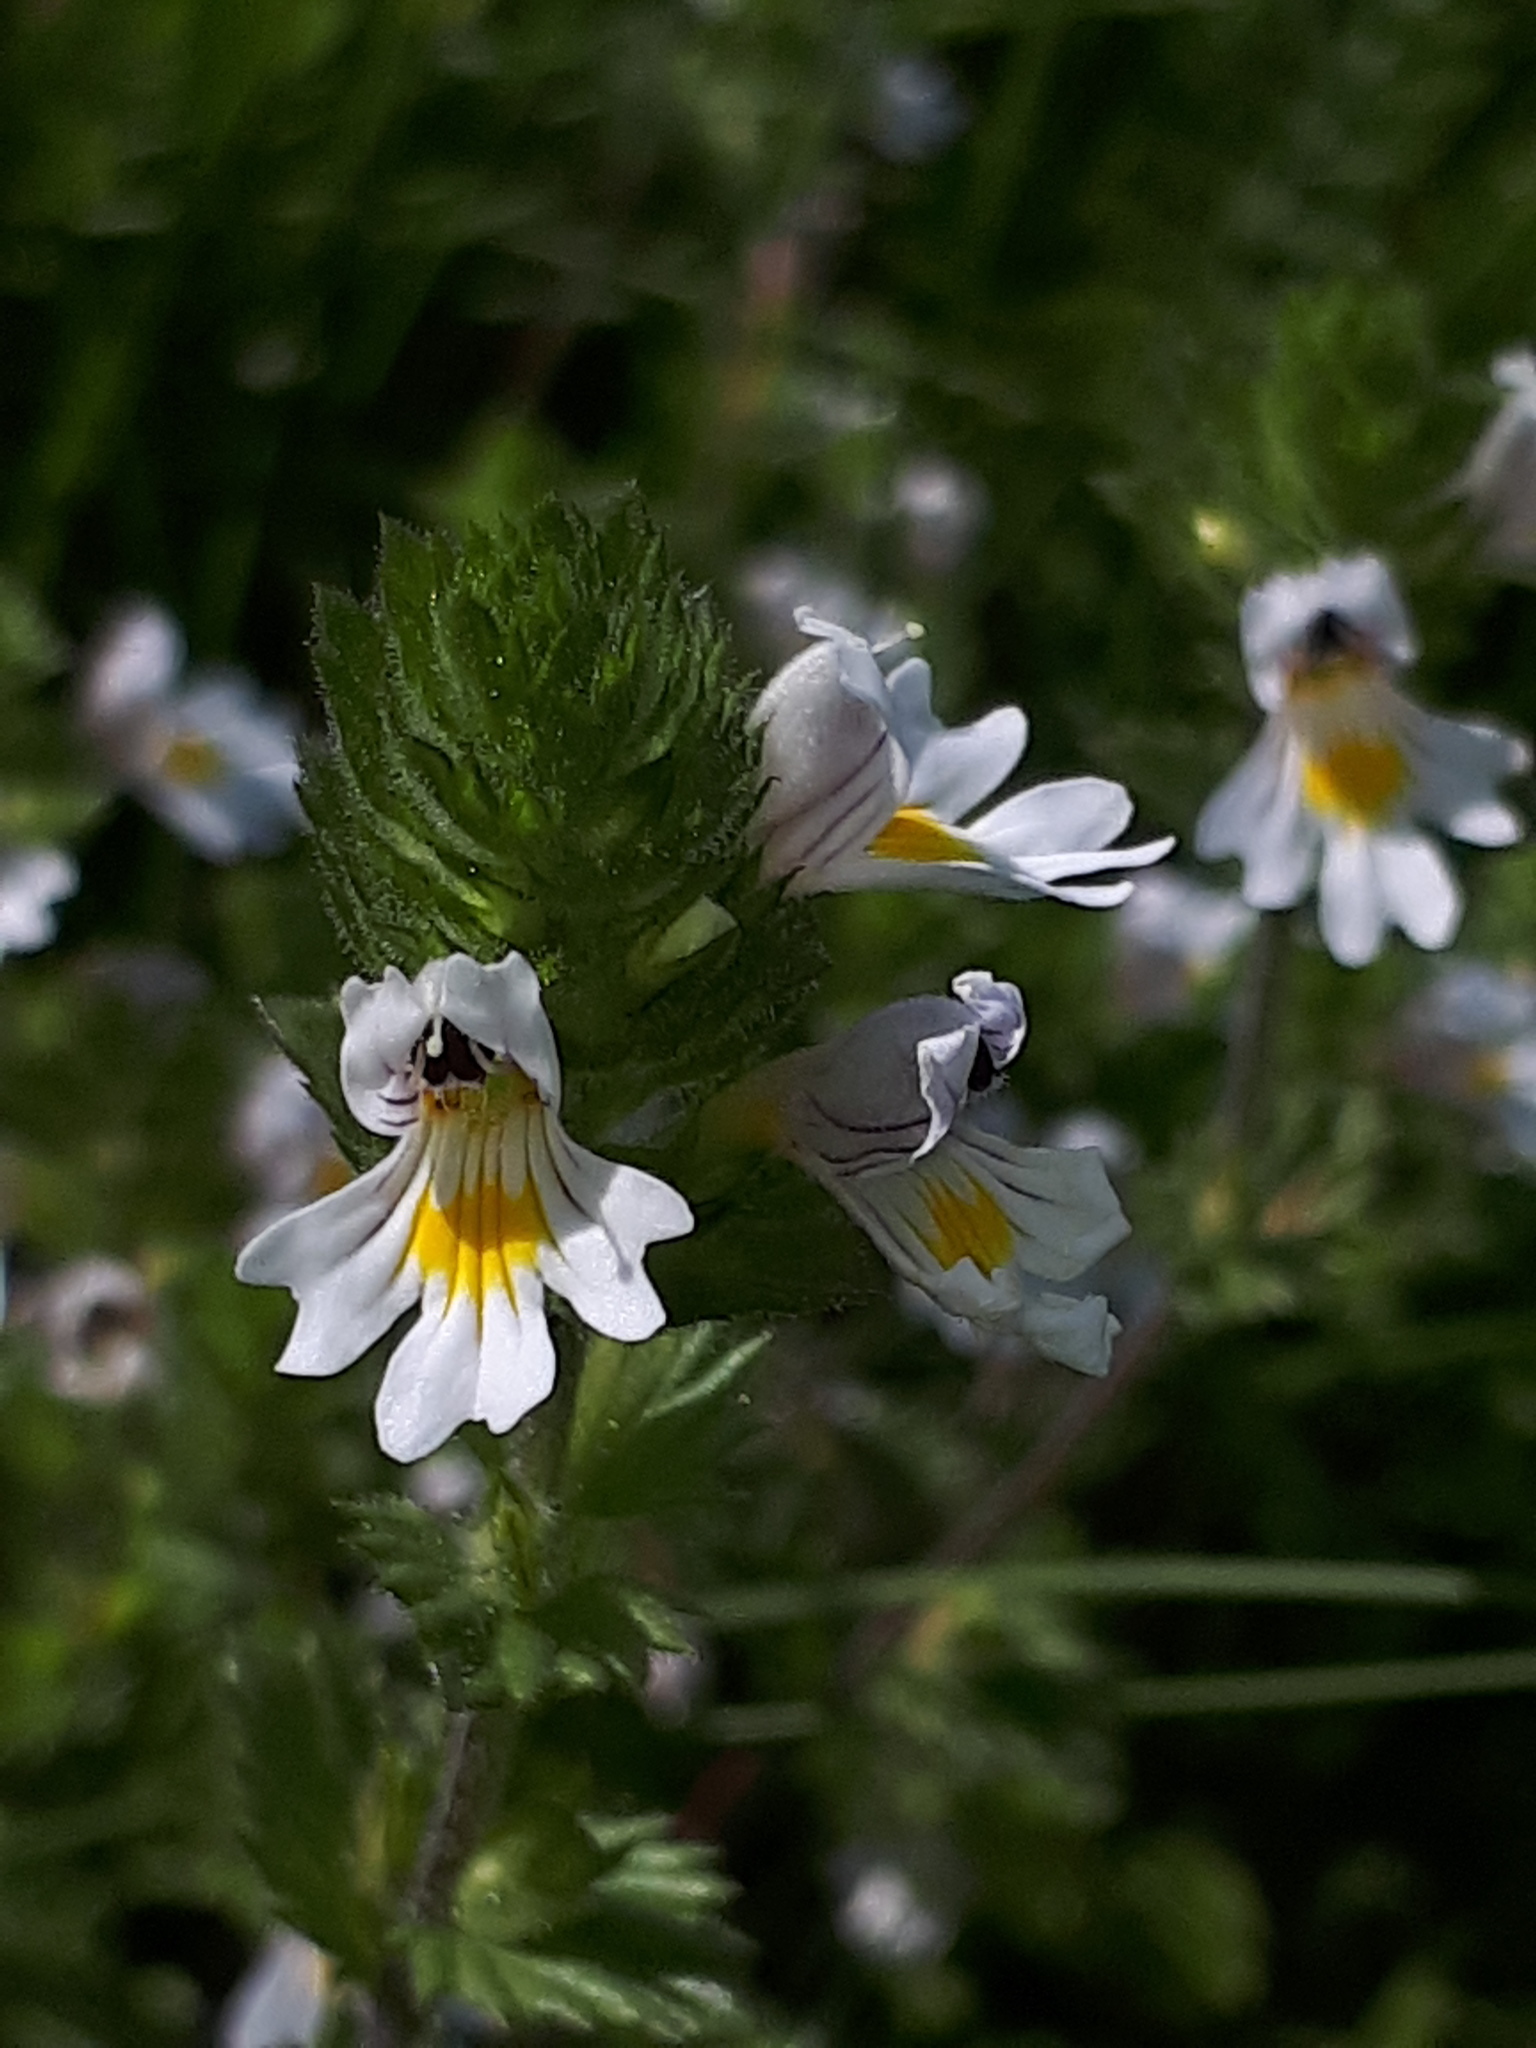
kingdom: Plantae
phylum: Tracheophyta
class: Magnoliopsida
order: Lamiales
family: Orobanchaceae
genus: Euphrasia
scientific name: Euphrasia officinalis
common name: Eyebright
